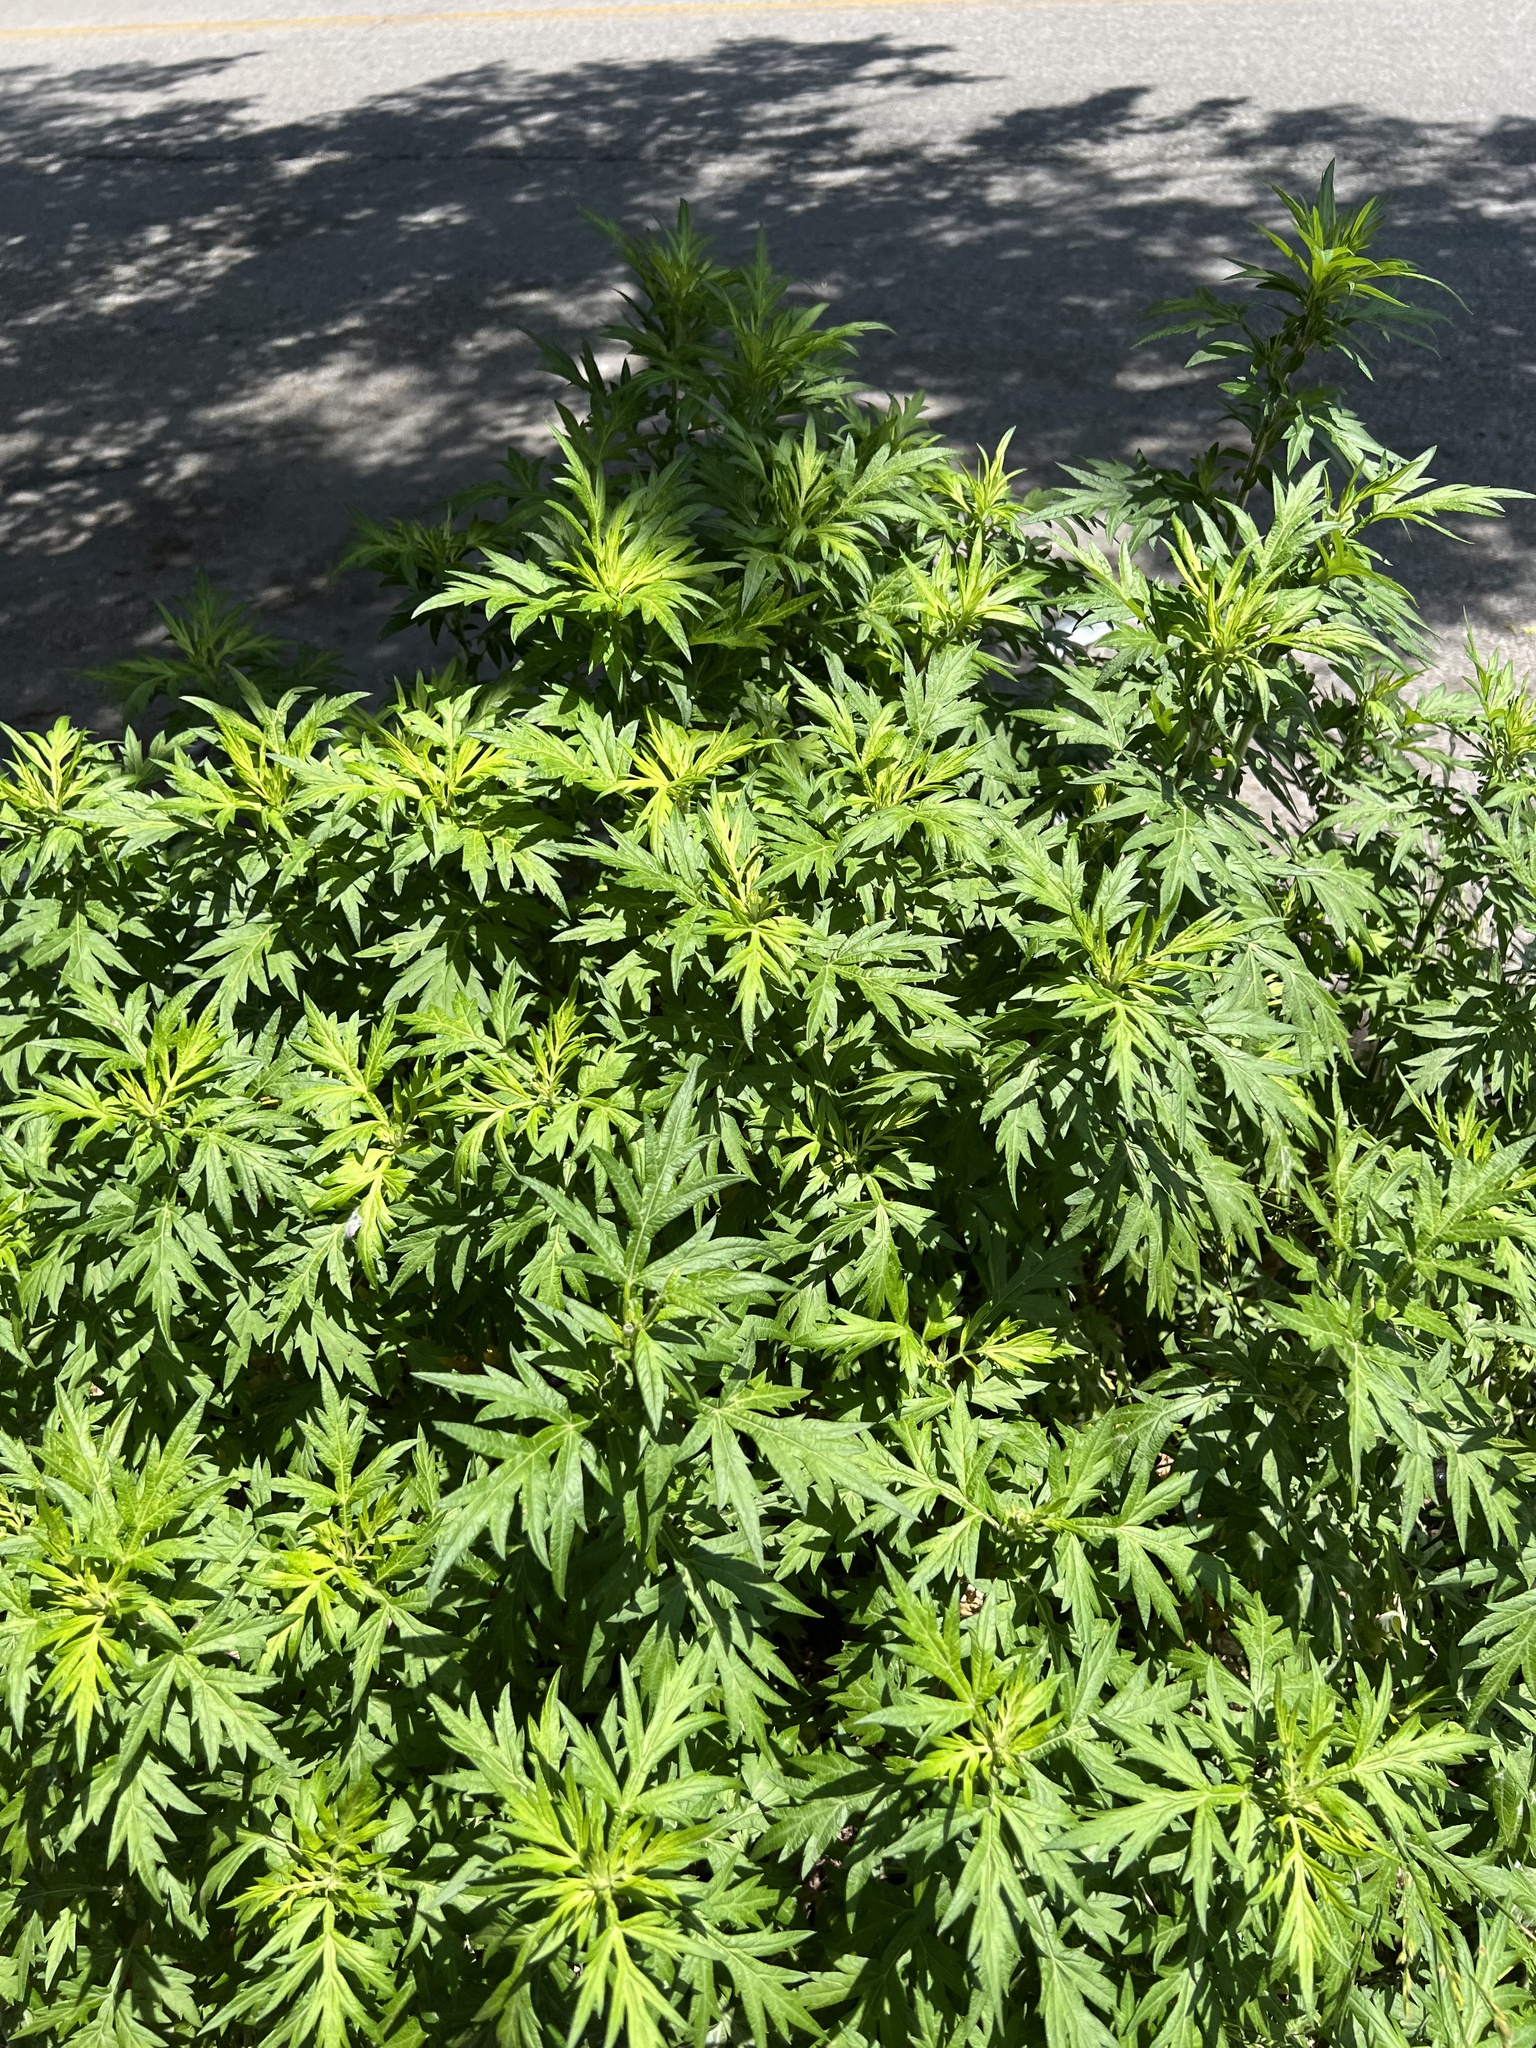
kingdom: Plantae
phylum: Tracheophyta
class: Magnoliopsida
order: Asterales
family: Asteraceae
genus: Artemisia
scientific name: Artemisia vulgaris
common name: Mugwort
